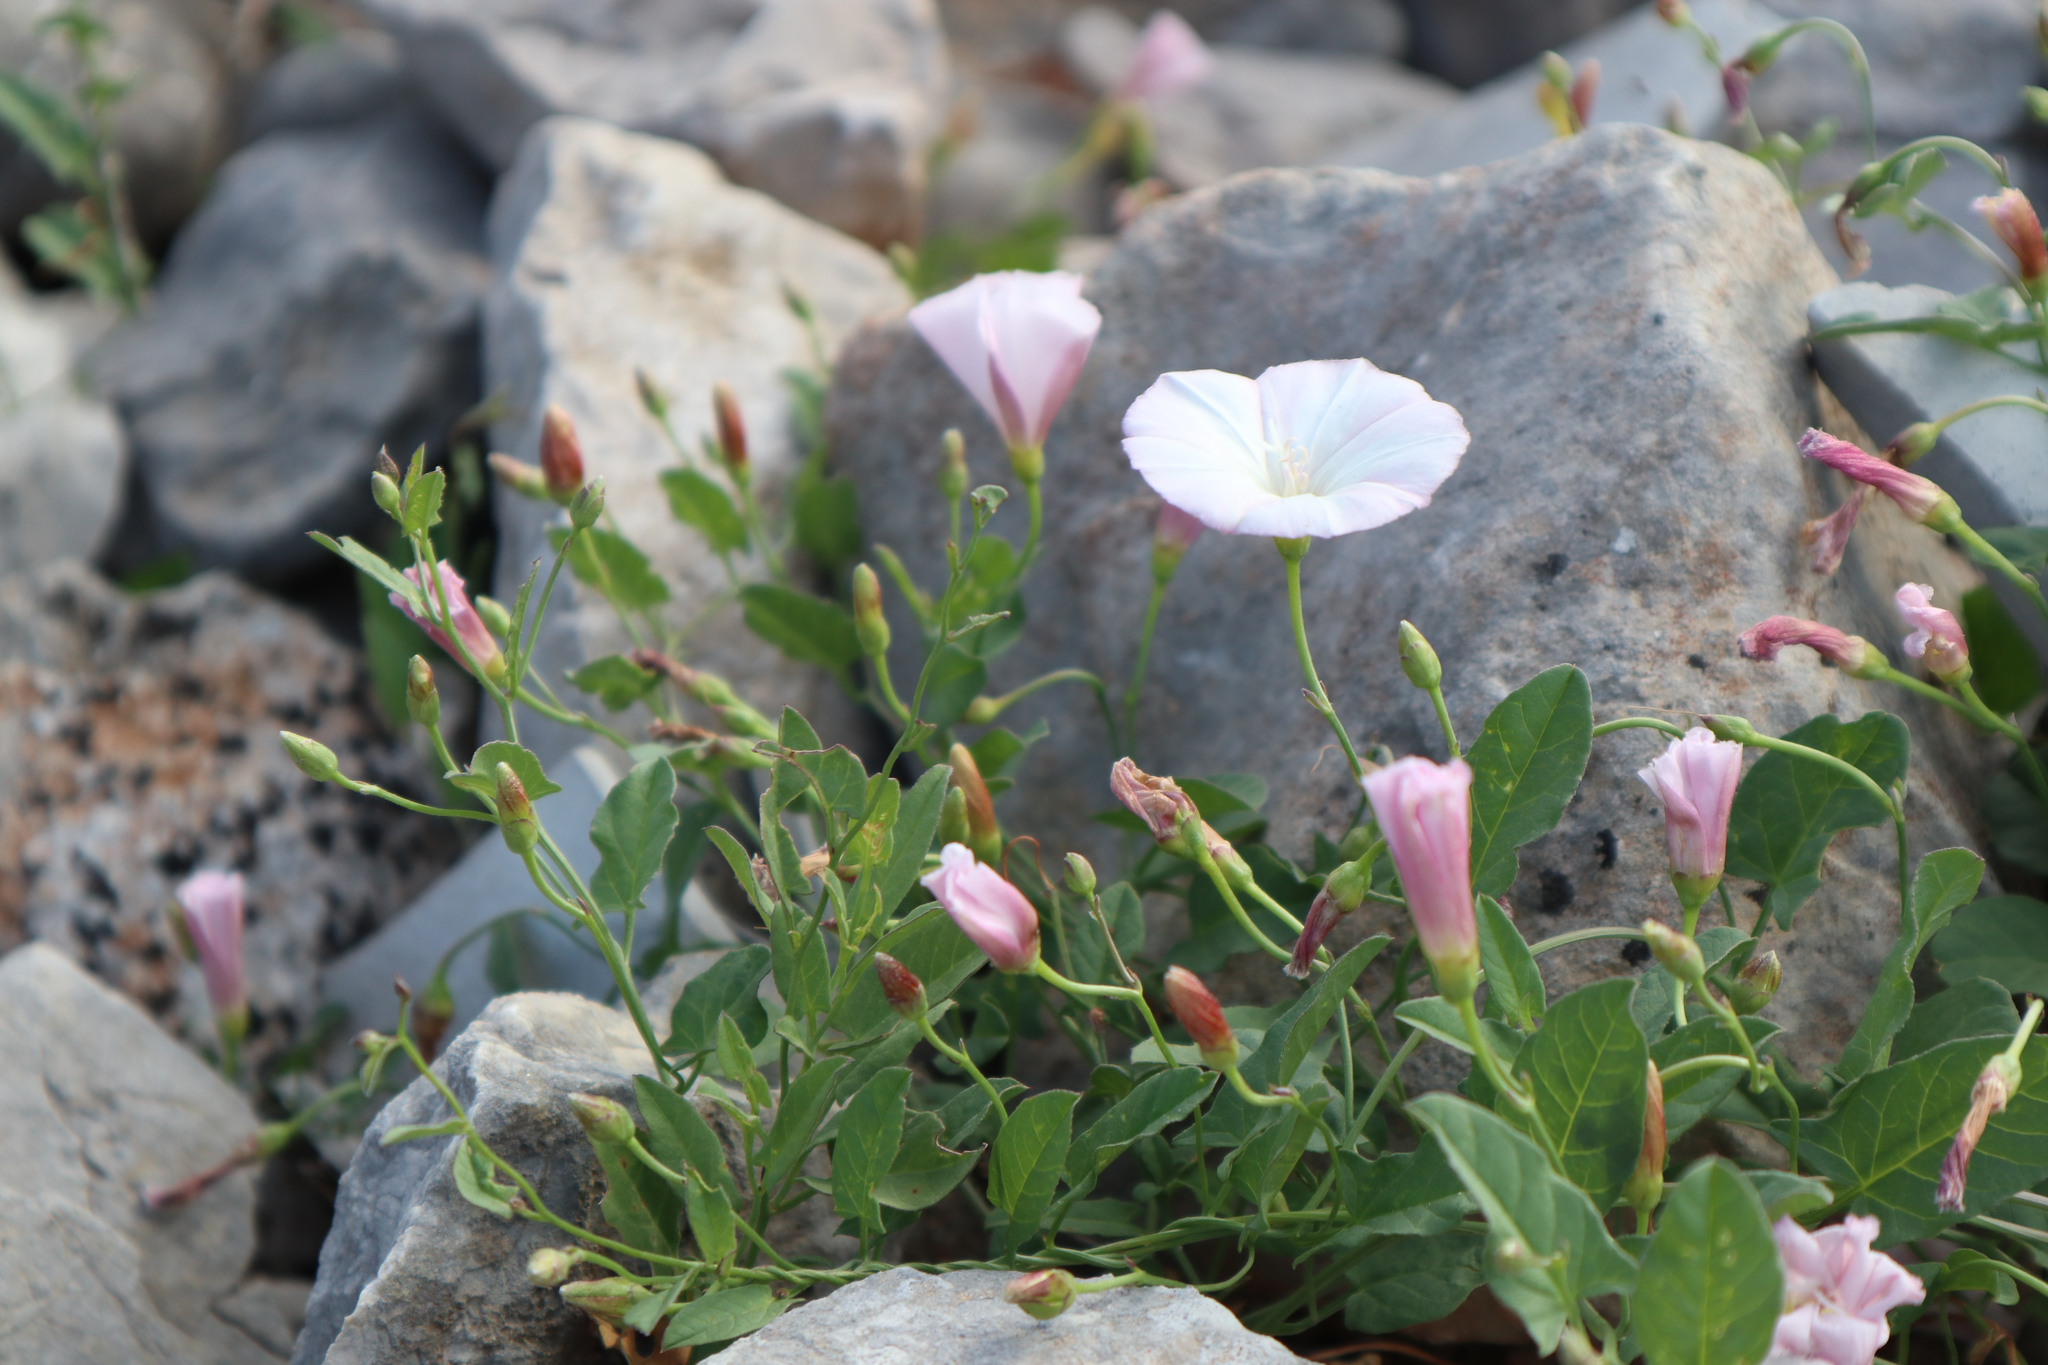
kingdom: Plantae
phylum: Tracheophyta
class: Magnoliopsida
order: Solanales
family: Convolvulaceae
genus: Convolvulus
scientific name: Convolvulus arvensis
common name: Field bindweed
